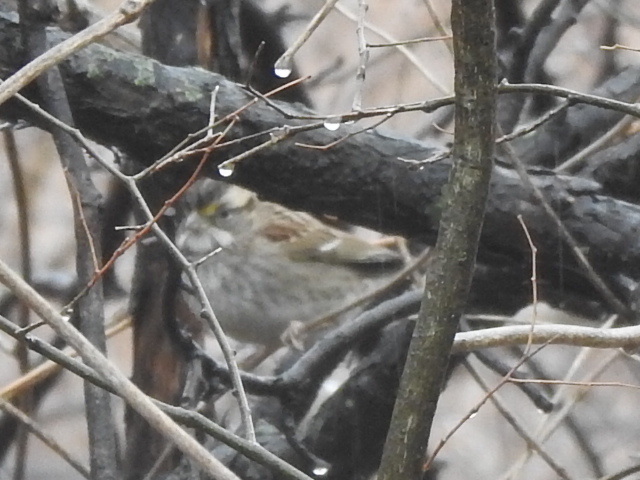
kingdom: Animalia
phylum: Chordata
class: Aves
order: Passeriformes
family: Passerellidae
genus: Zonotrichia
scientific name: Zonotrichia albicollis
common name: White-throated sparrow
